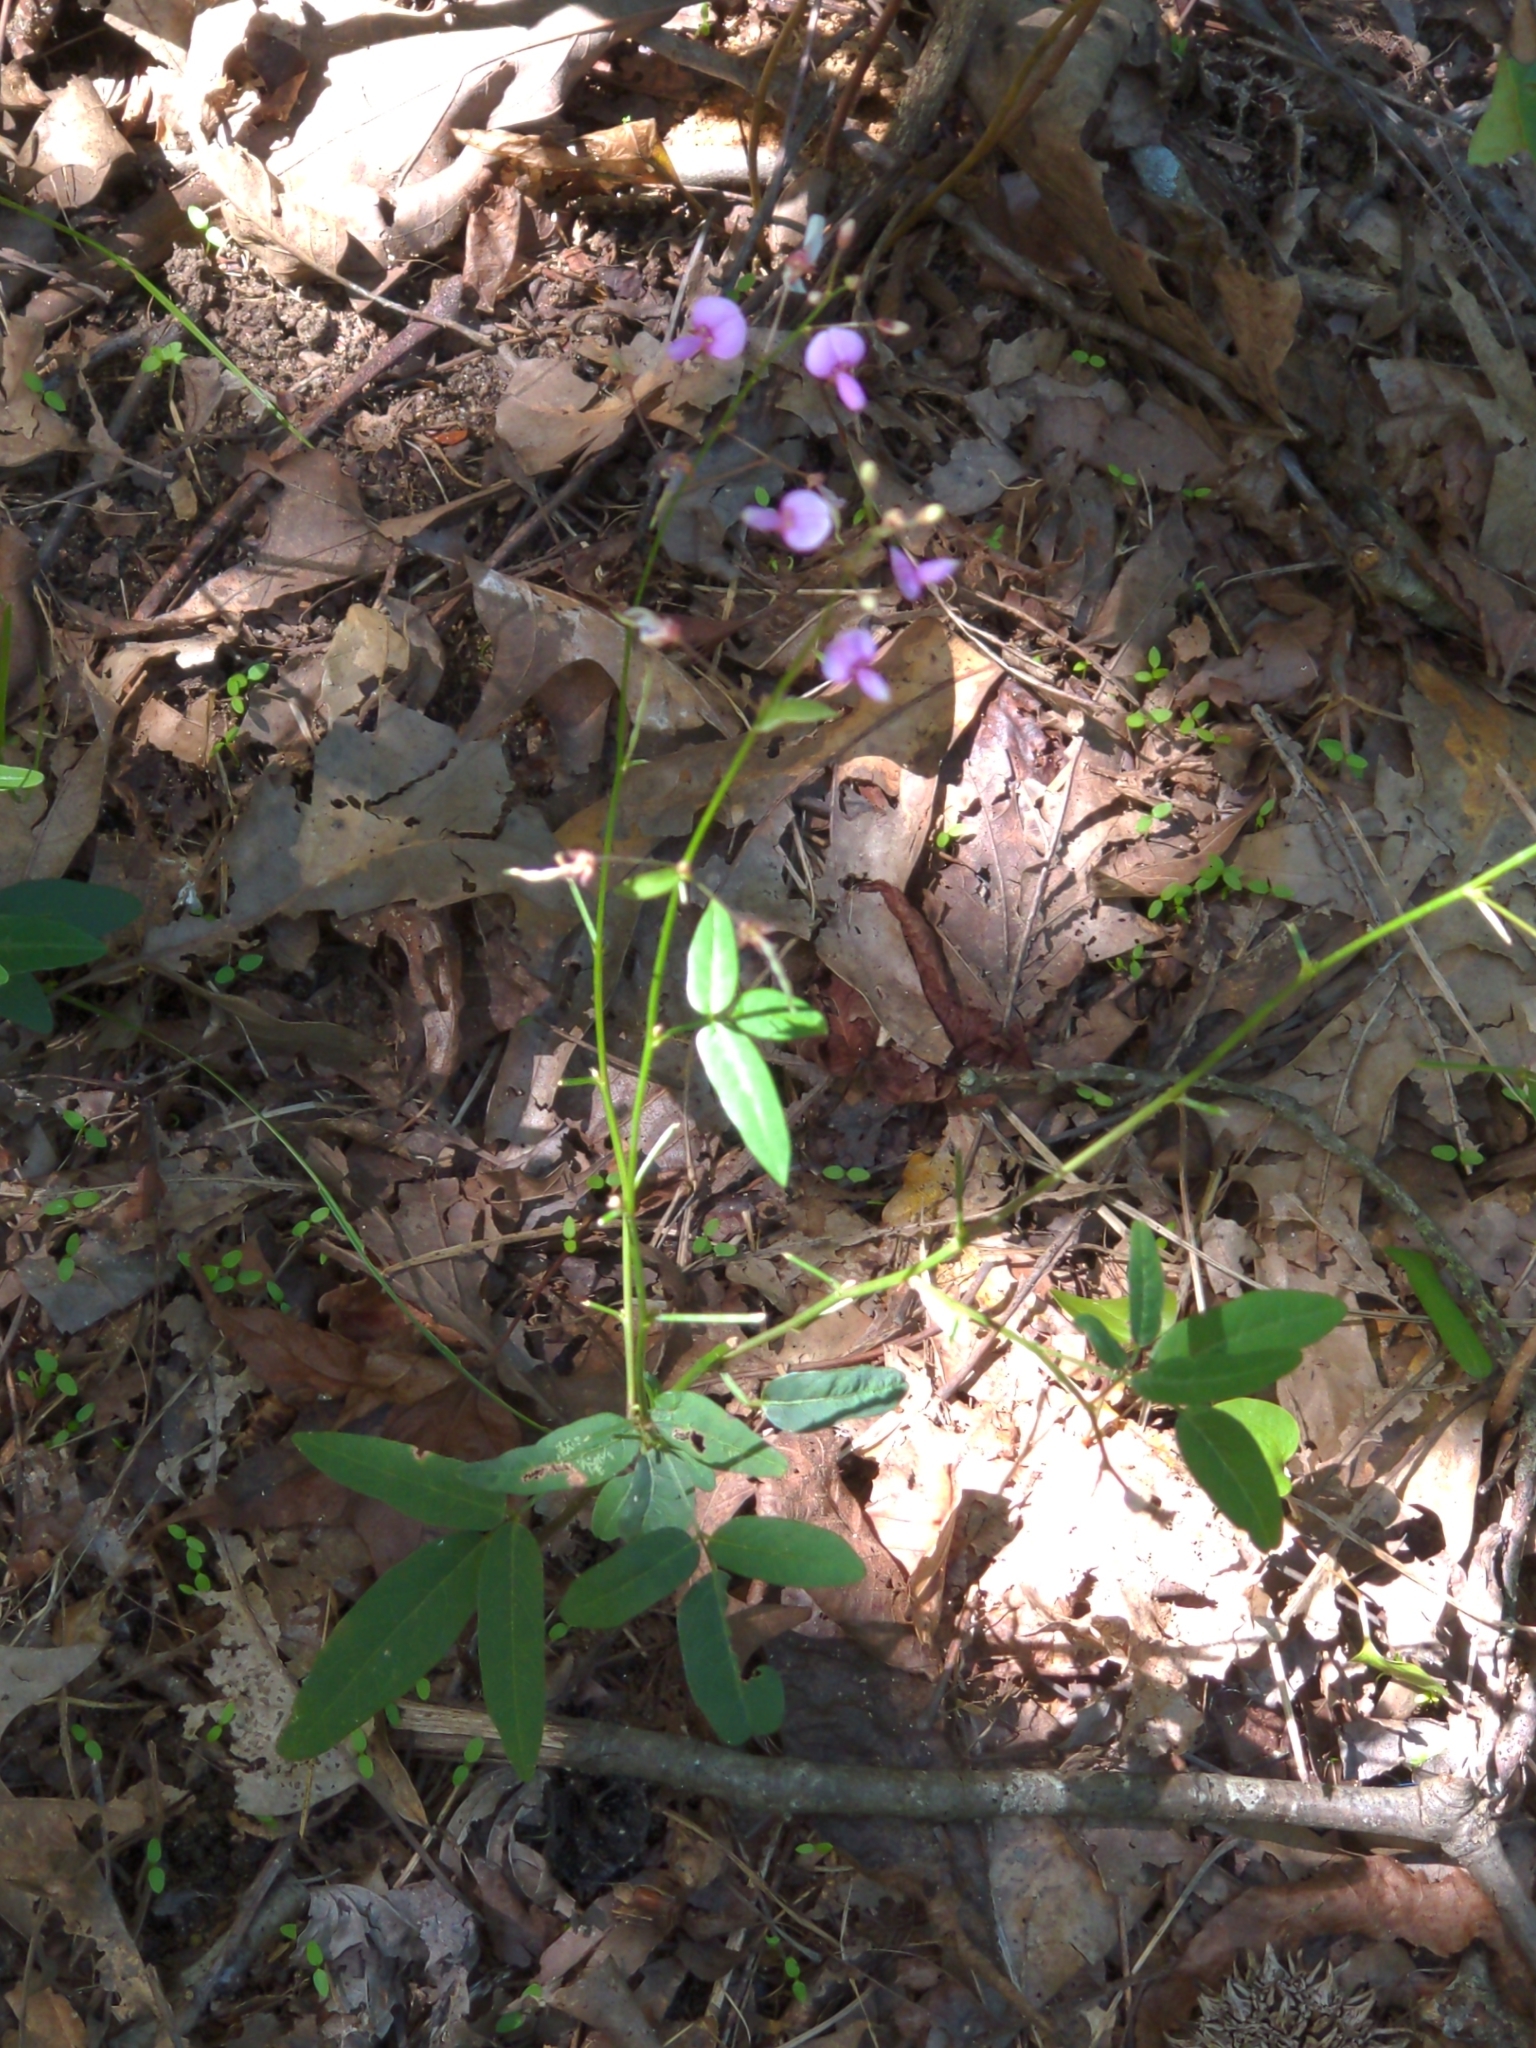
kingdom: Plantae
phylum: Tracheophyta
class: Magnoliopsida
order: Fabales
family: Fabaceae
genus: Desmodium
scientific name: Desmodium paniculatum
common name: Panicled tick-clover
